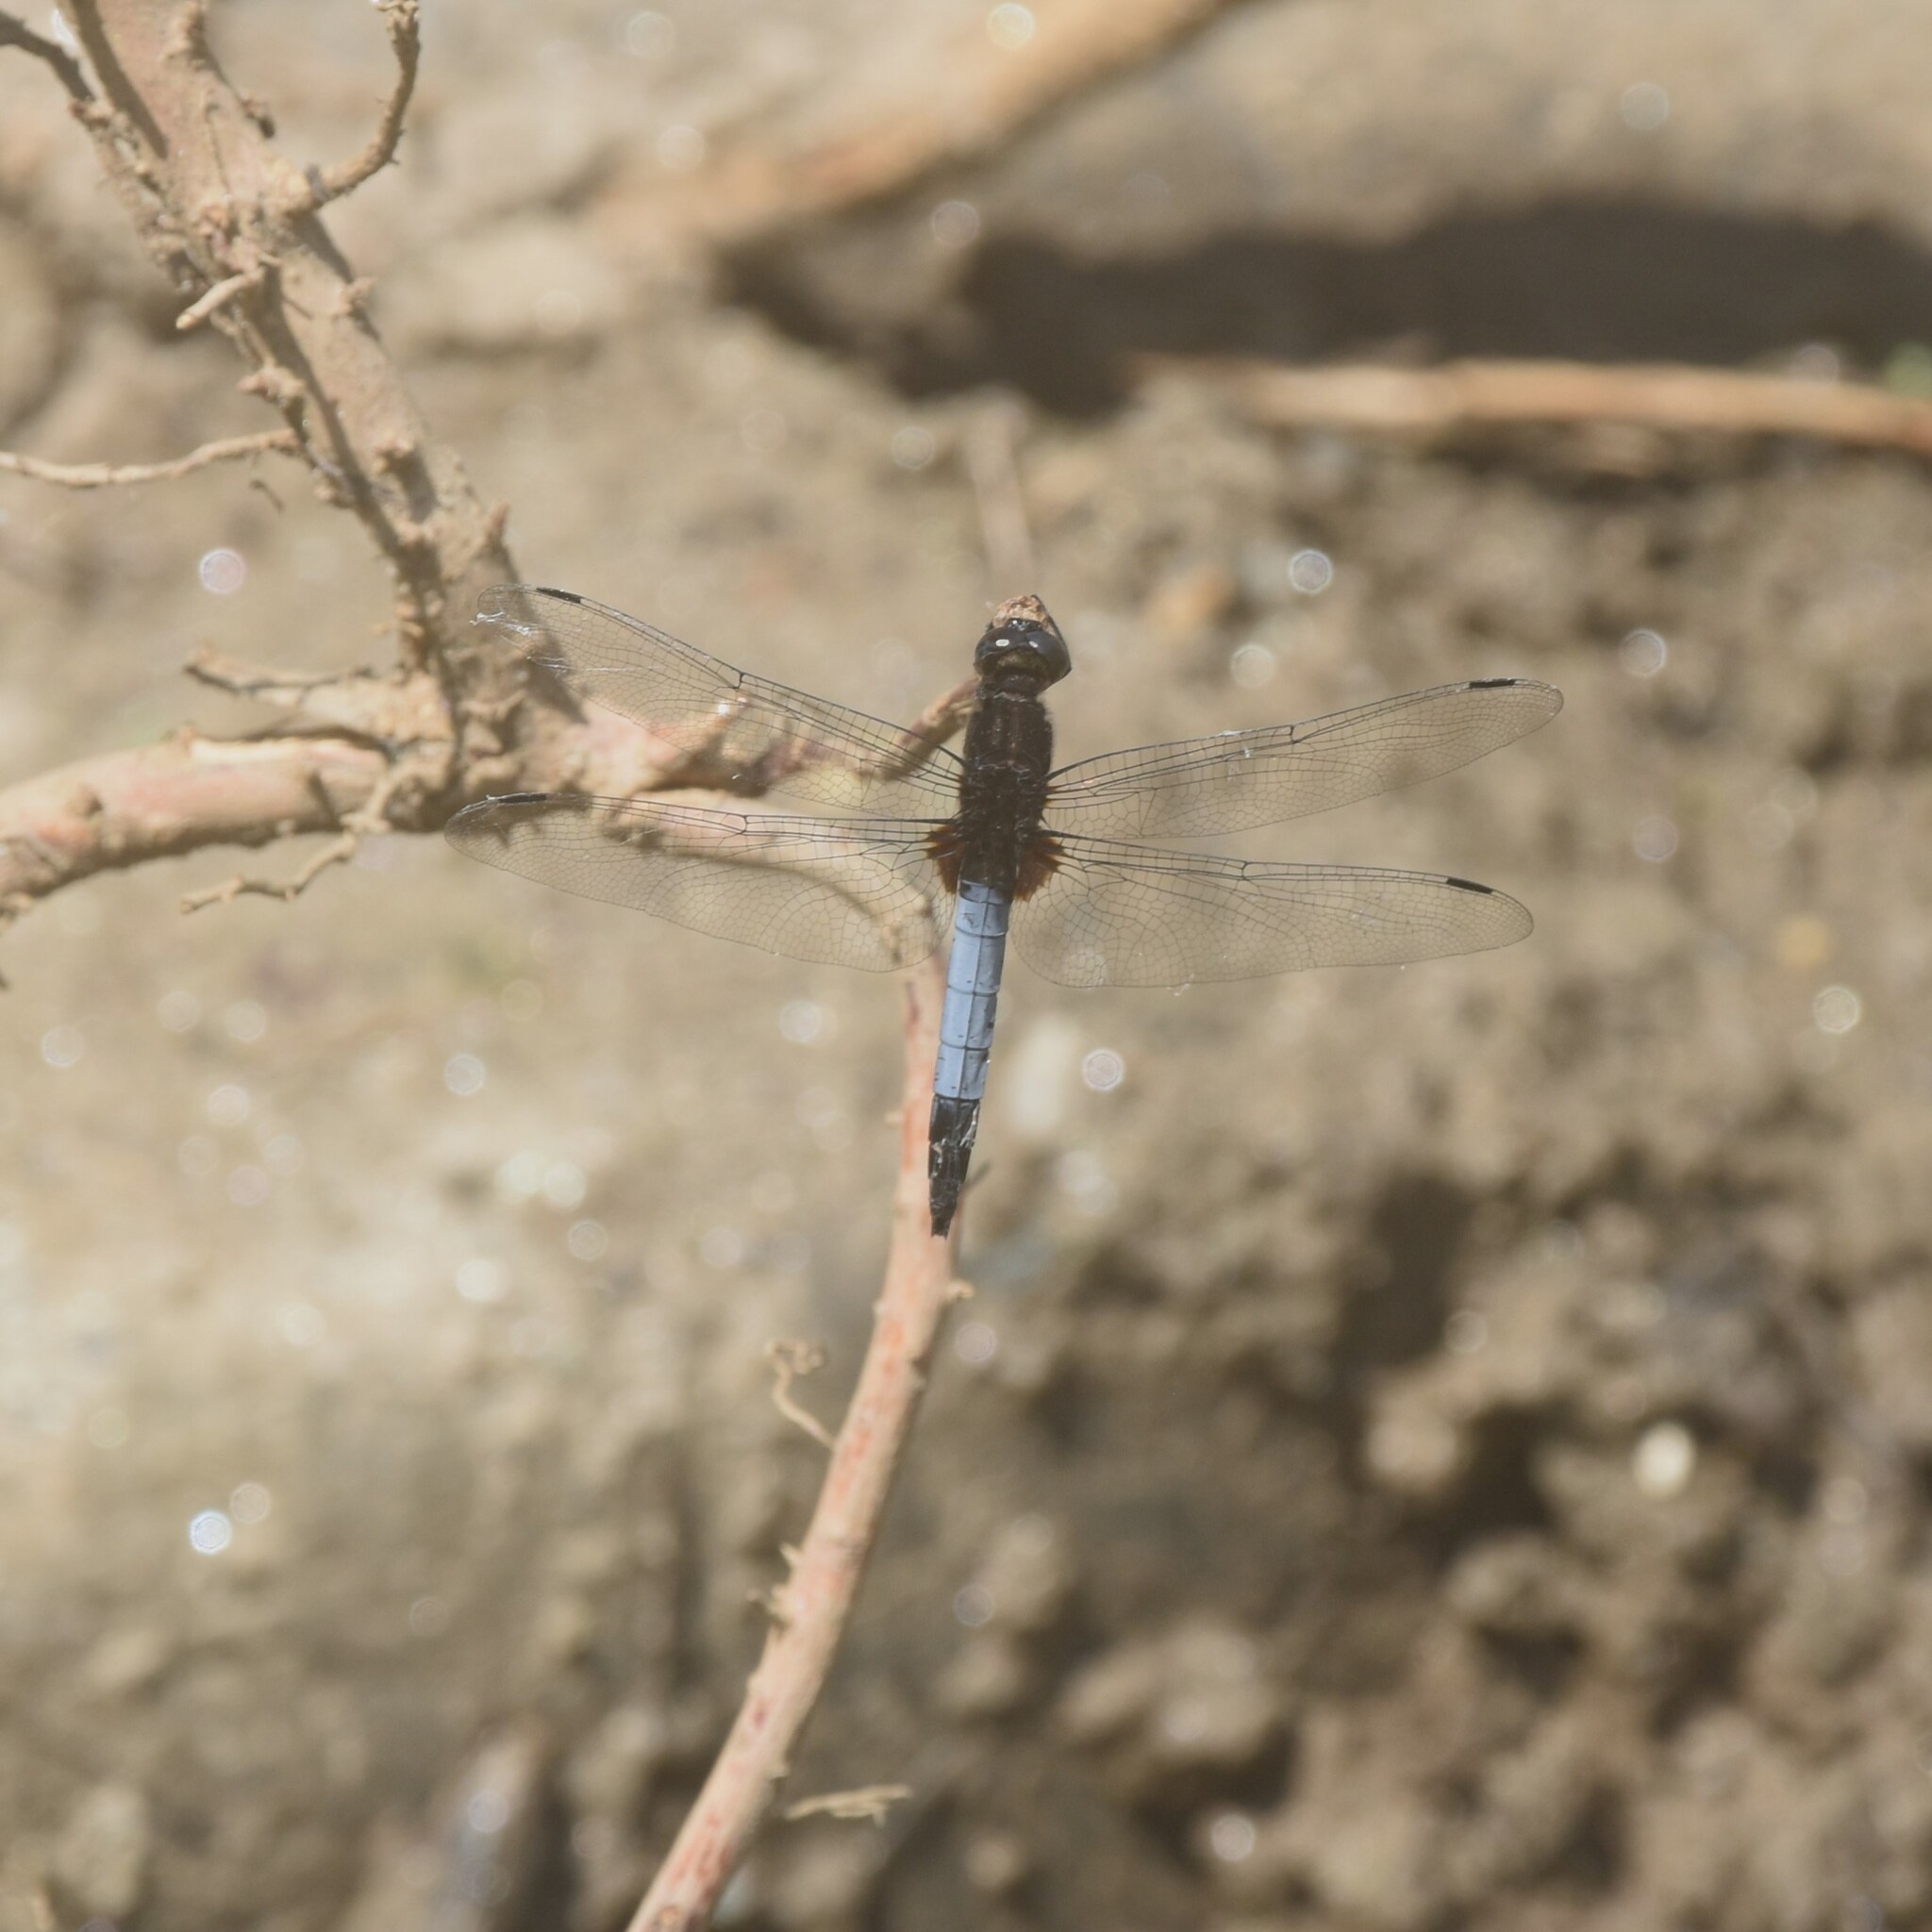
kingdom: Animalia
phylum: Arthropoda
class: Insecta
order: Odonata
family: Libellulidae
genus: Orthetrum
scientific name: Orthetrum triangulare
